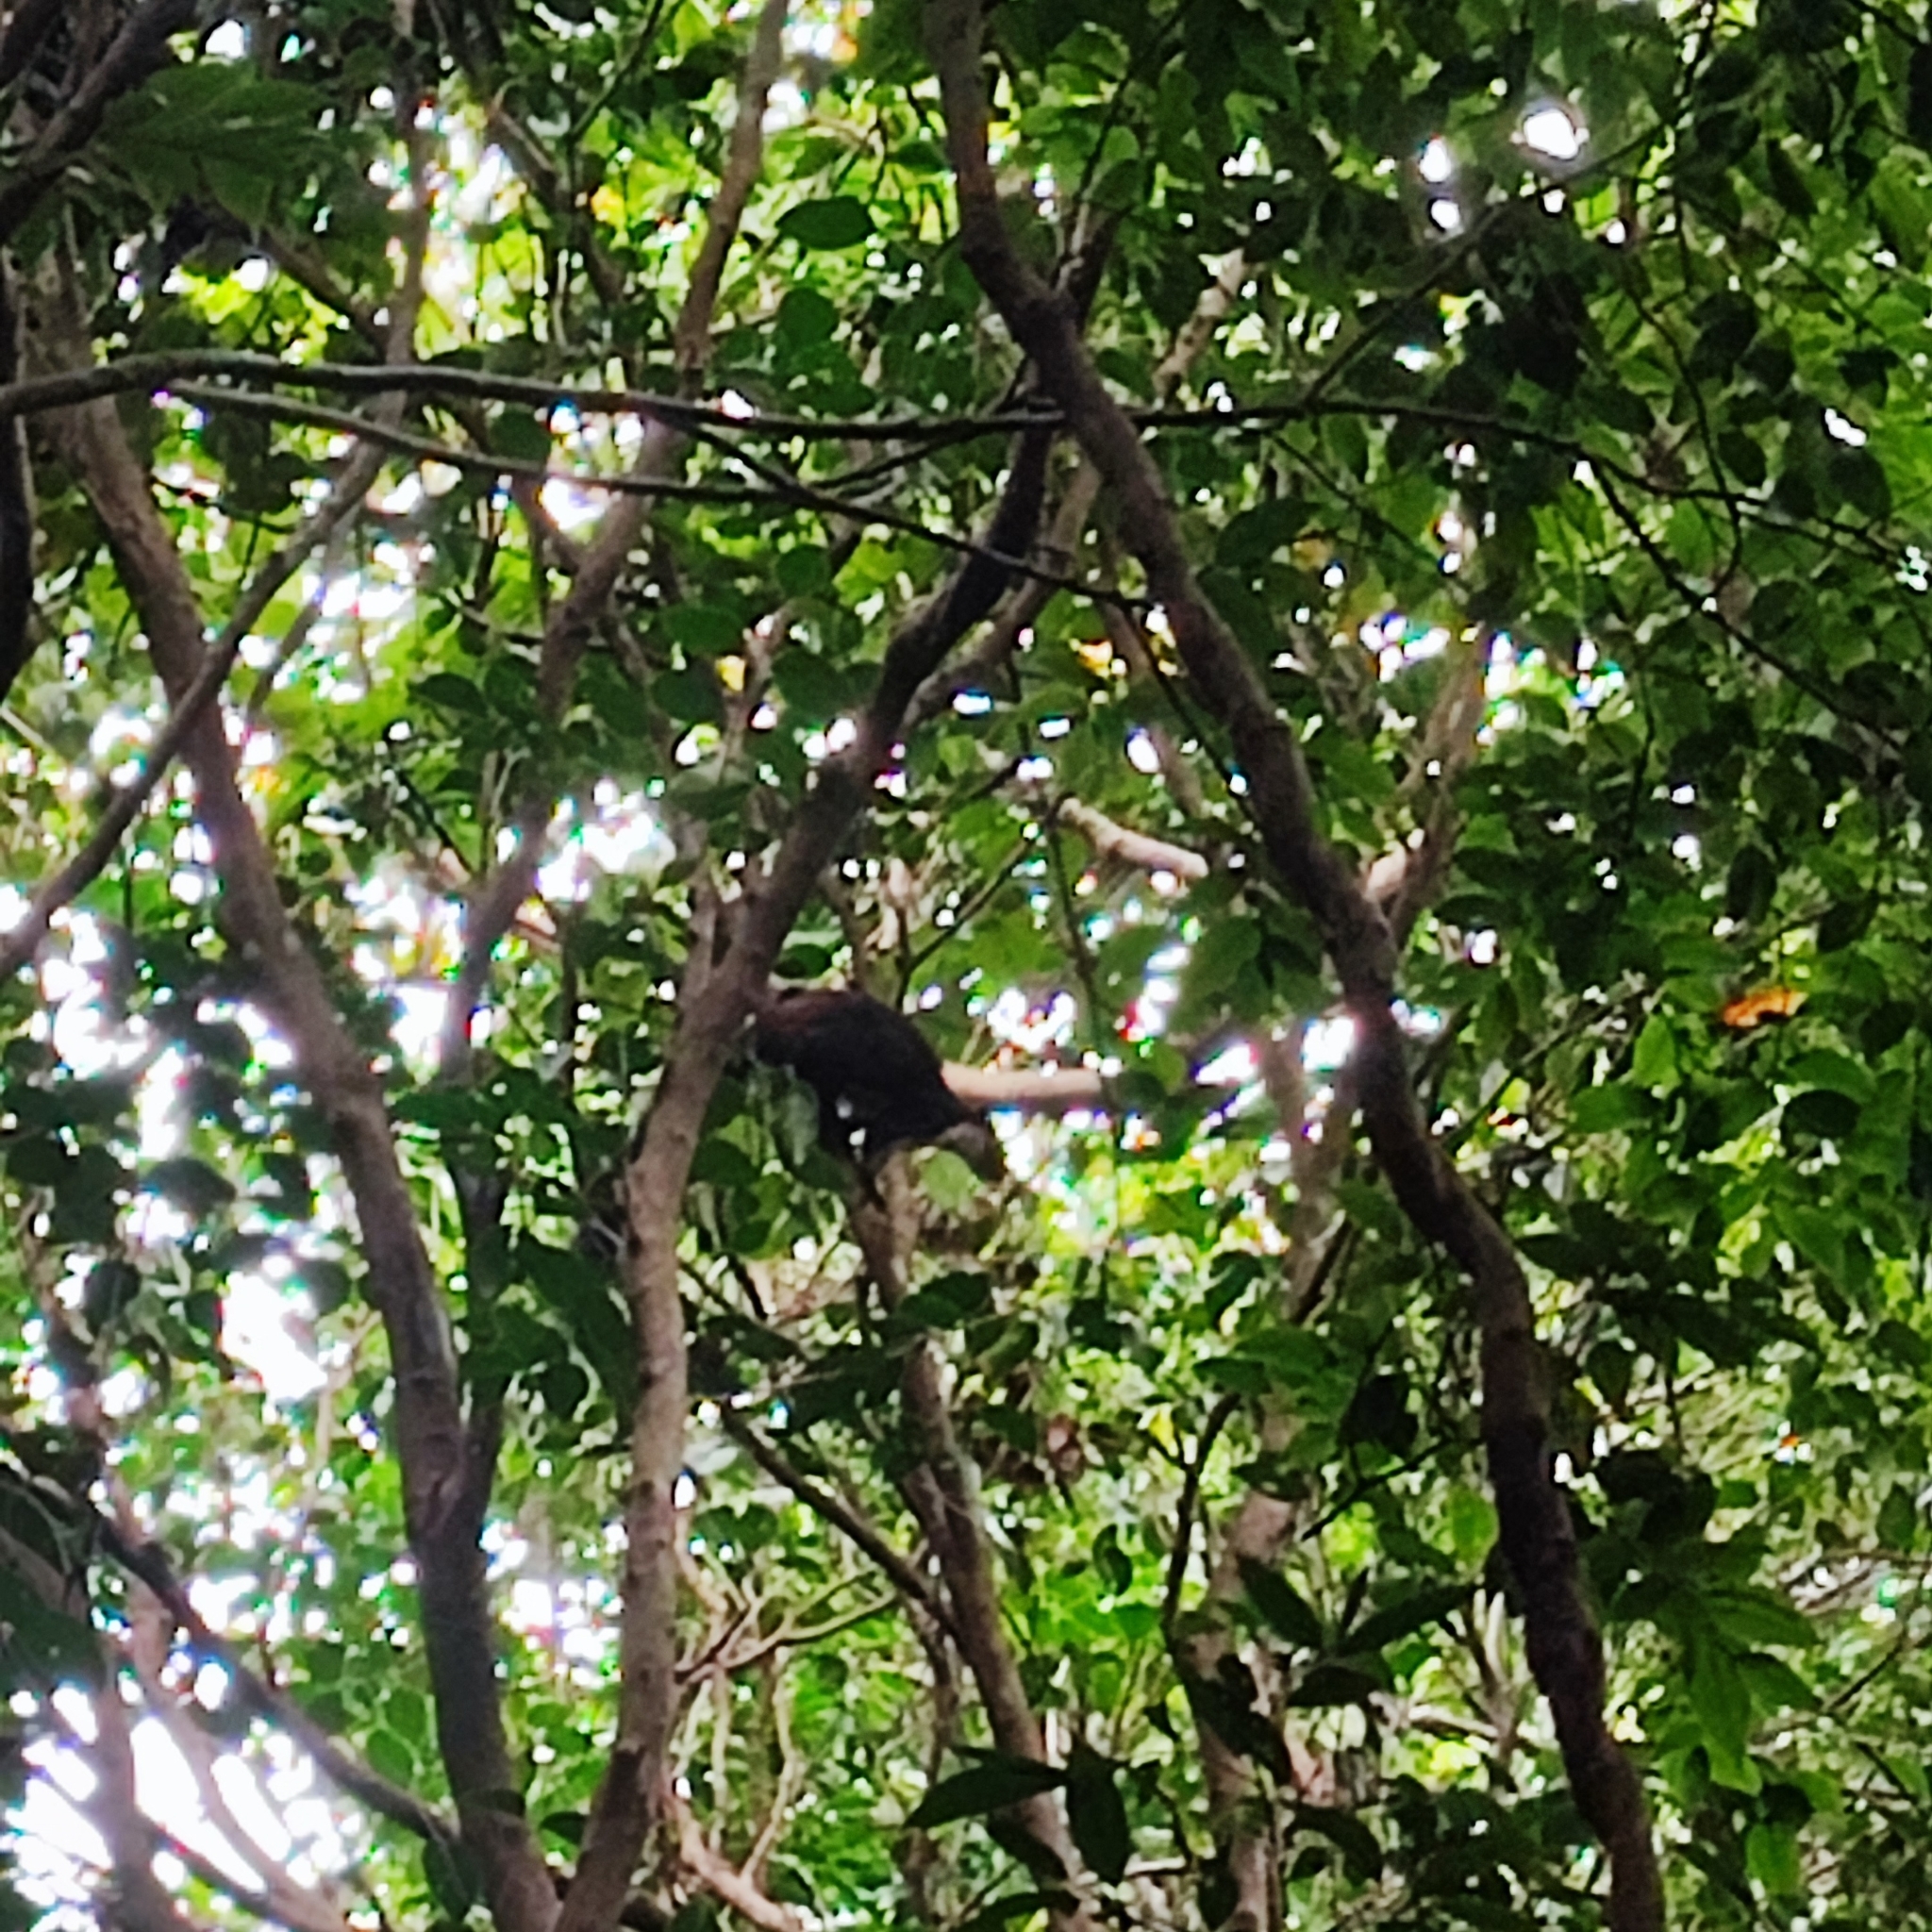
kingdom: Animalia
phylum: Chordata
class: Mammalia
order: Rodentia
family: Sciuridae
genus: Ratufa
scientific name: Ratufa bicolor
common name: Black giant squirrel
